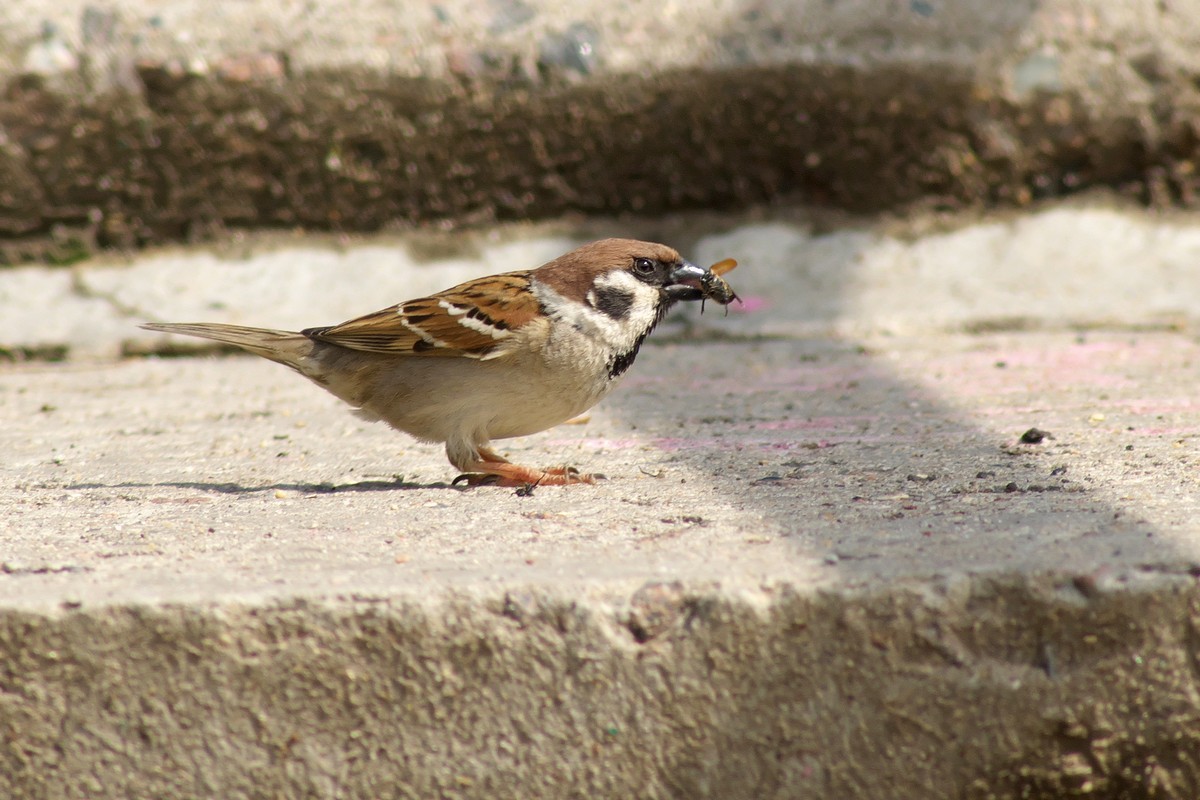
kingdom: Animalia
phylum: Chordata
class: Aves
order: Passeriformes
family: Passeridae
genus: Passer
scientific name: Passer montanus
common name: Eurasian tree sparrow
